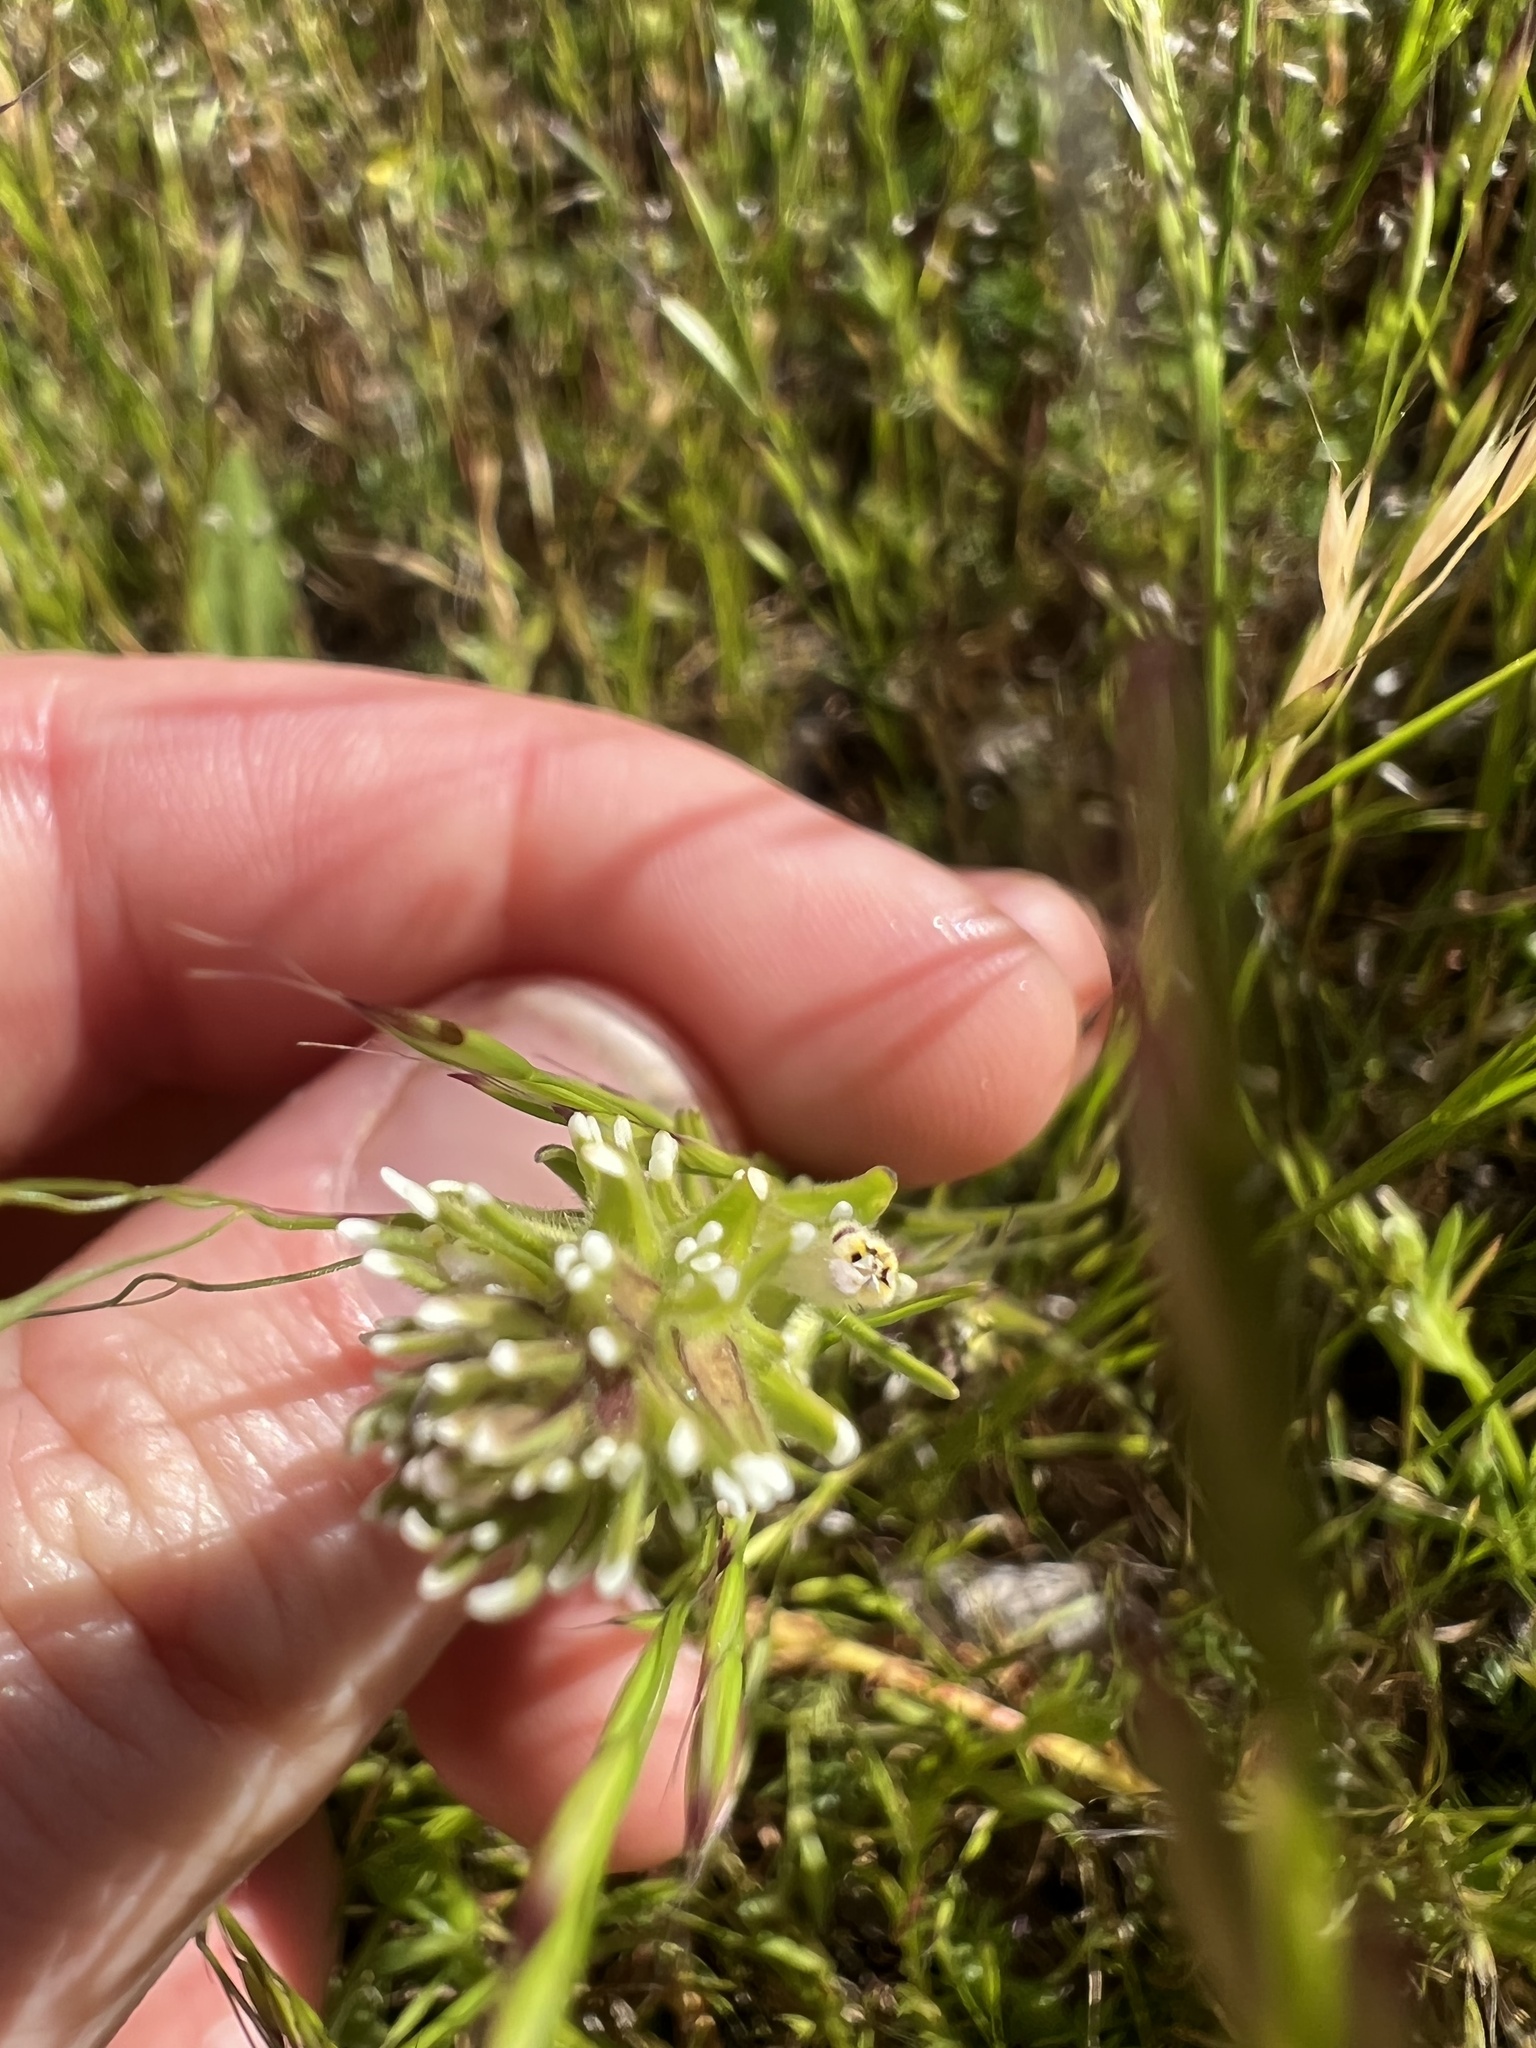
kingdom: Plantae
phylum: Tracheophyta
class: Magnoliopsida
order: Lamiales
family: Orobanchaceae
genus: Castilleja
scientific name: Castilleja attenuata
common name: Valley tassels
